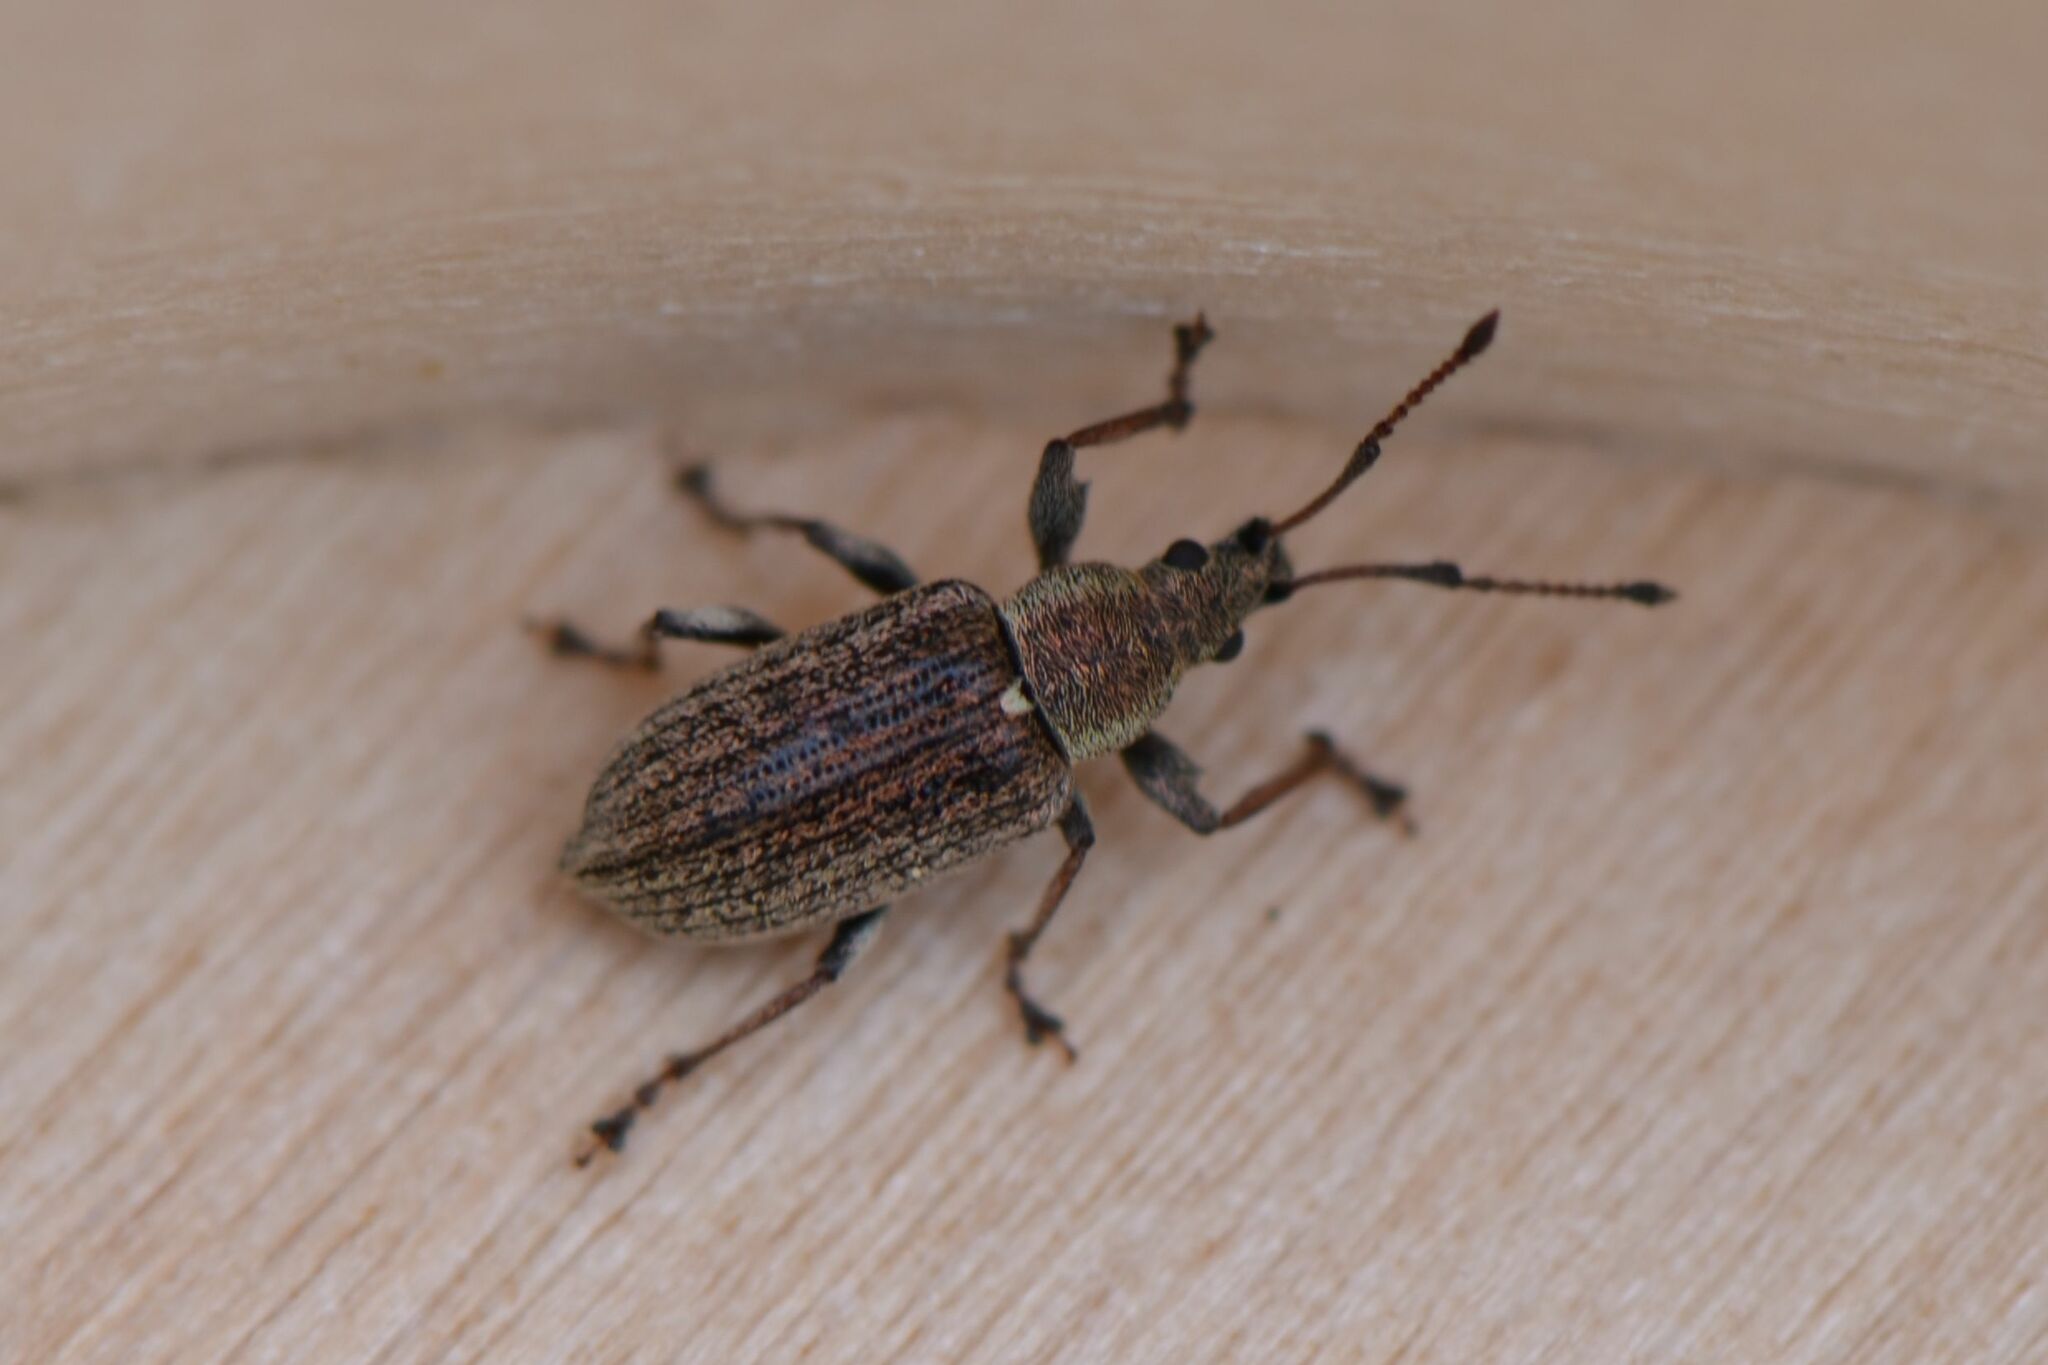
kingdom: Animalia
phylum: Arthropoda
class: Insecta
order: Coleoptera
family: Curculionidae
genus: Phyllobius
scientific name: Phyllobius pyri
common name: Common leaf weevil
